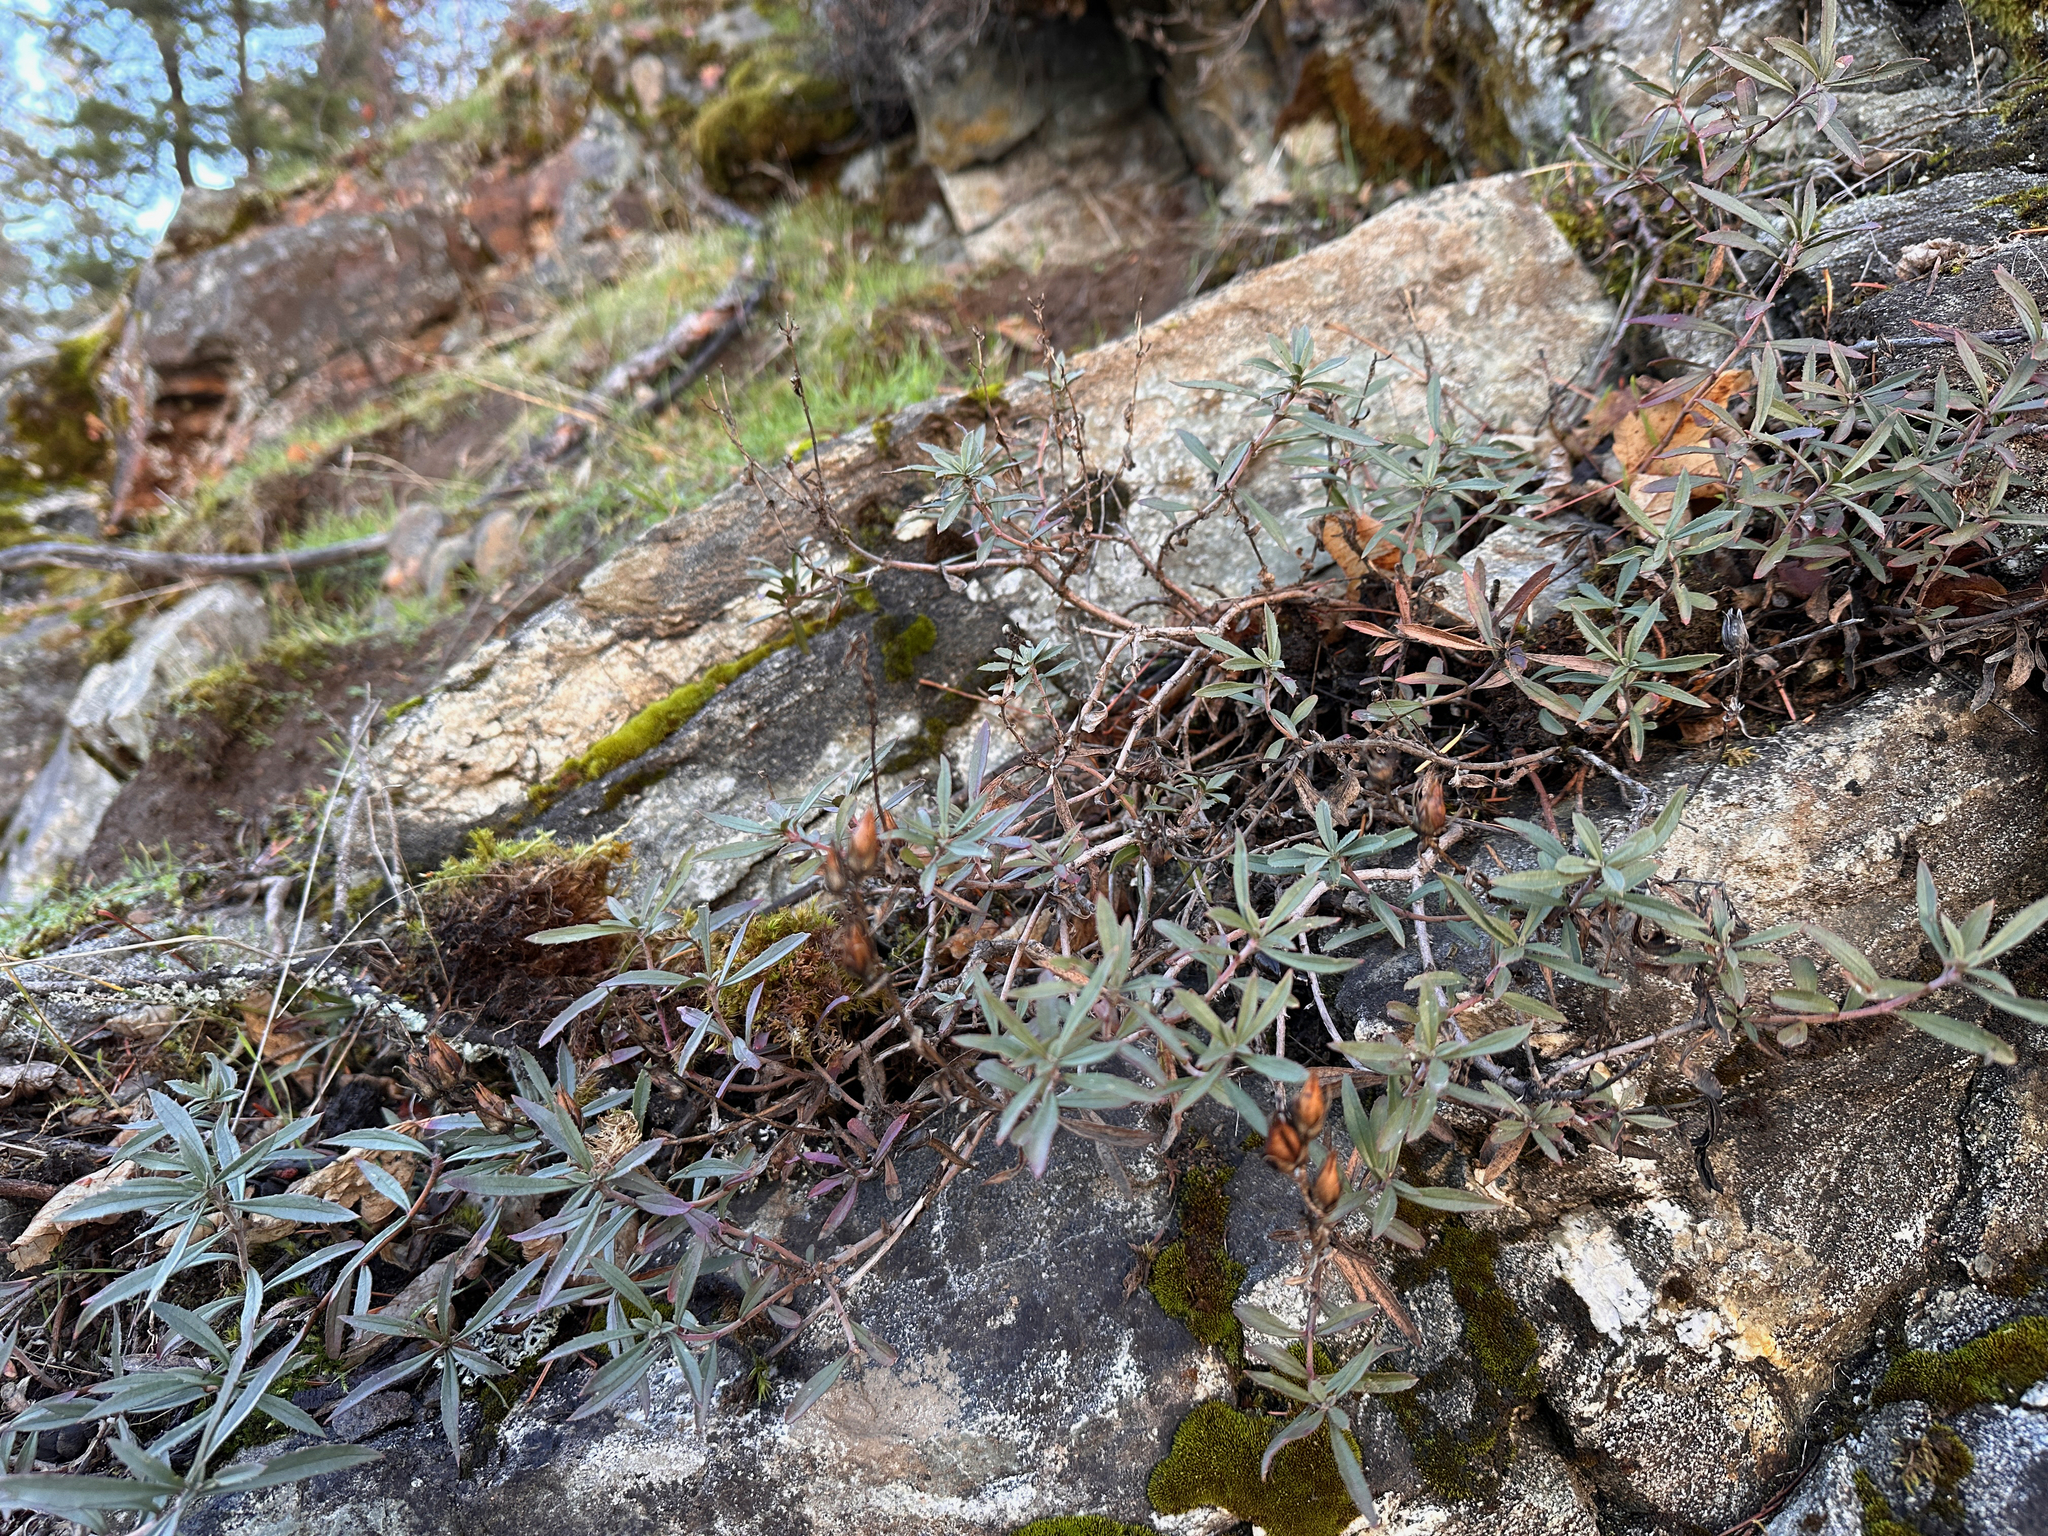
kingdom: Plantae
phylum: Tracheophyta
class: Magnoliopsida
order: Lamiales
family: Plantaginaceae
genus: Penstemon
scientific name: Penstemon fruticosus
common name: Bush penstemon
